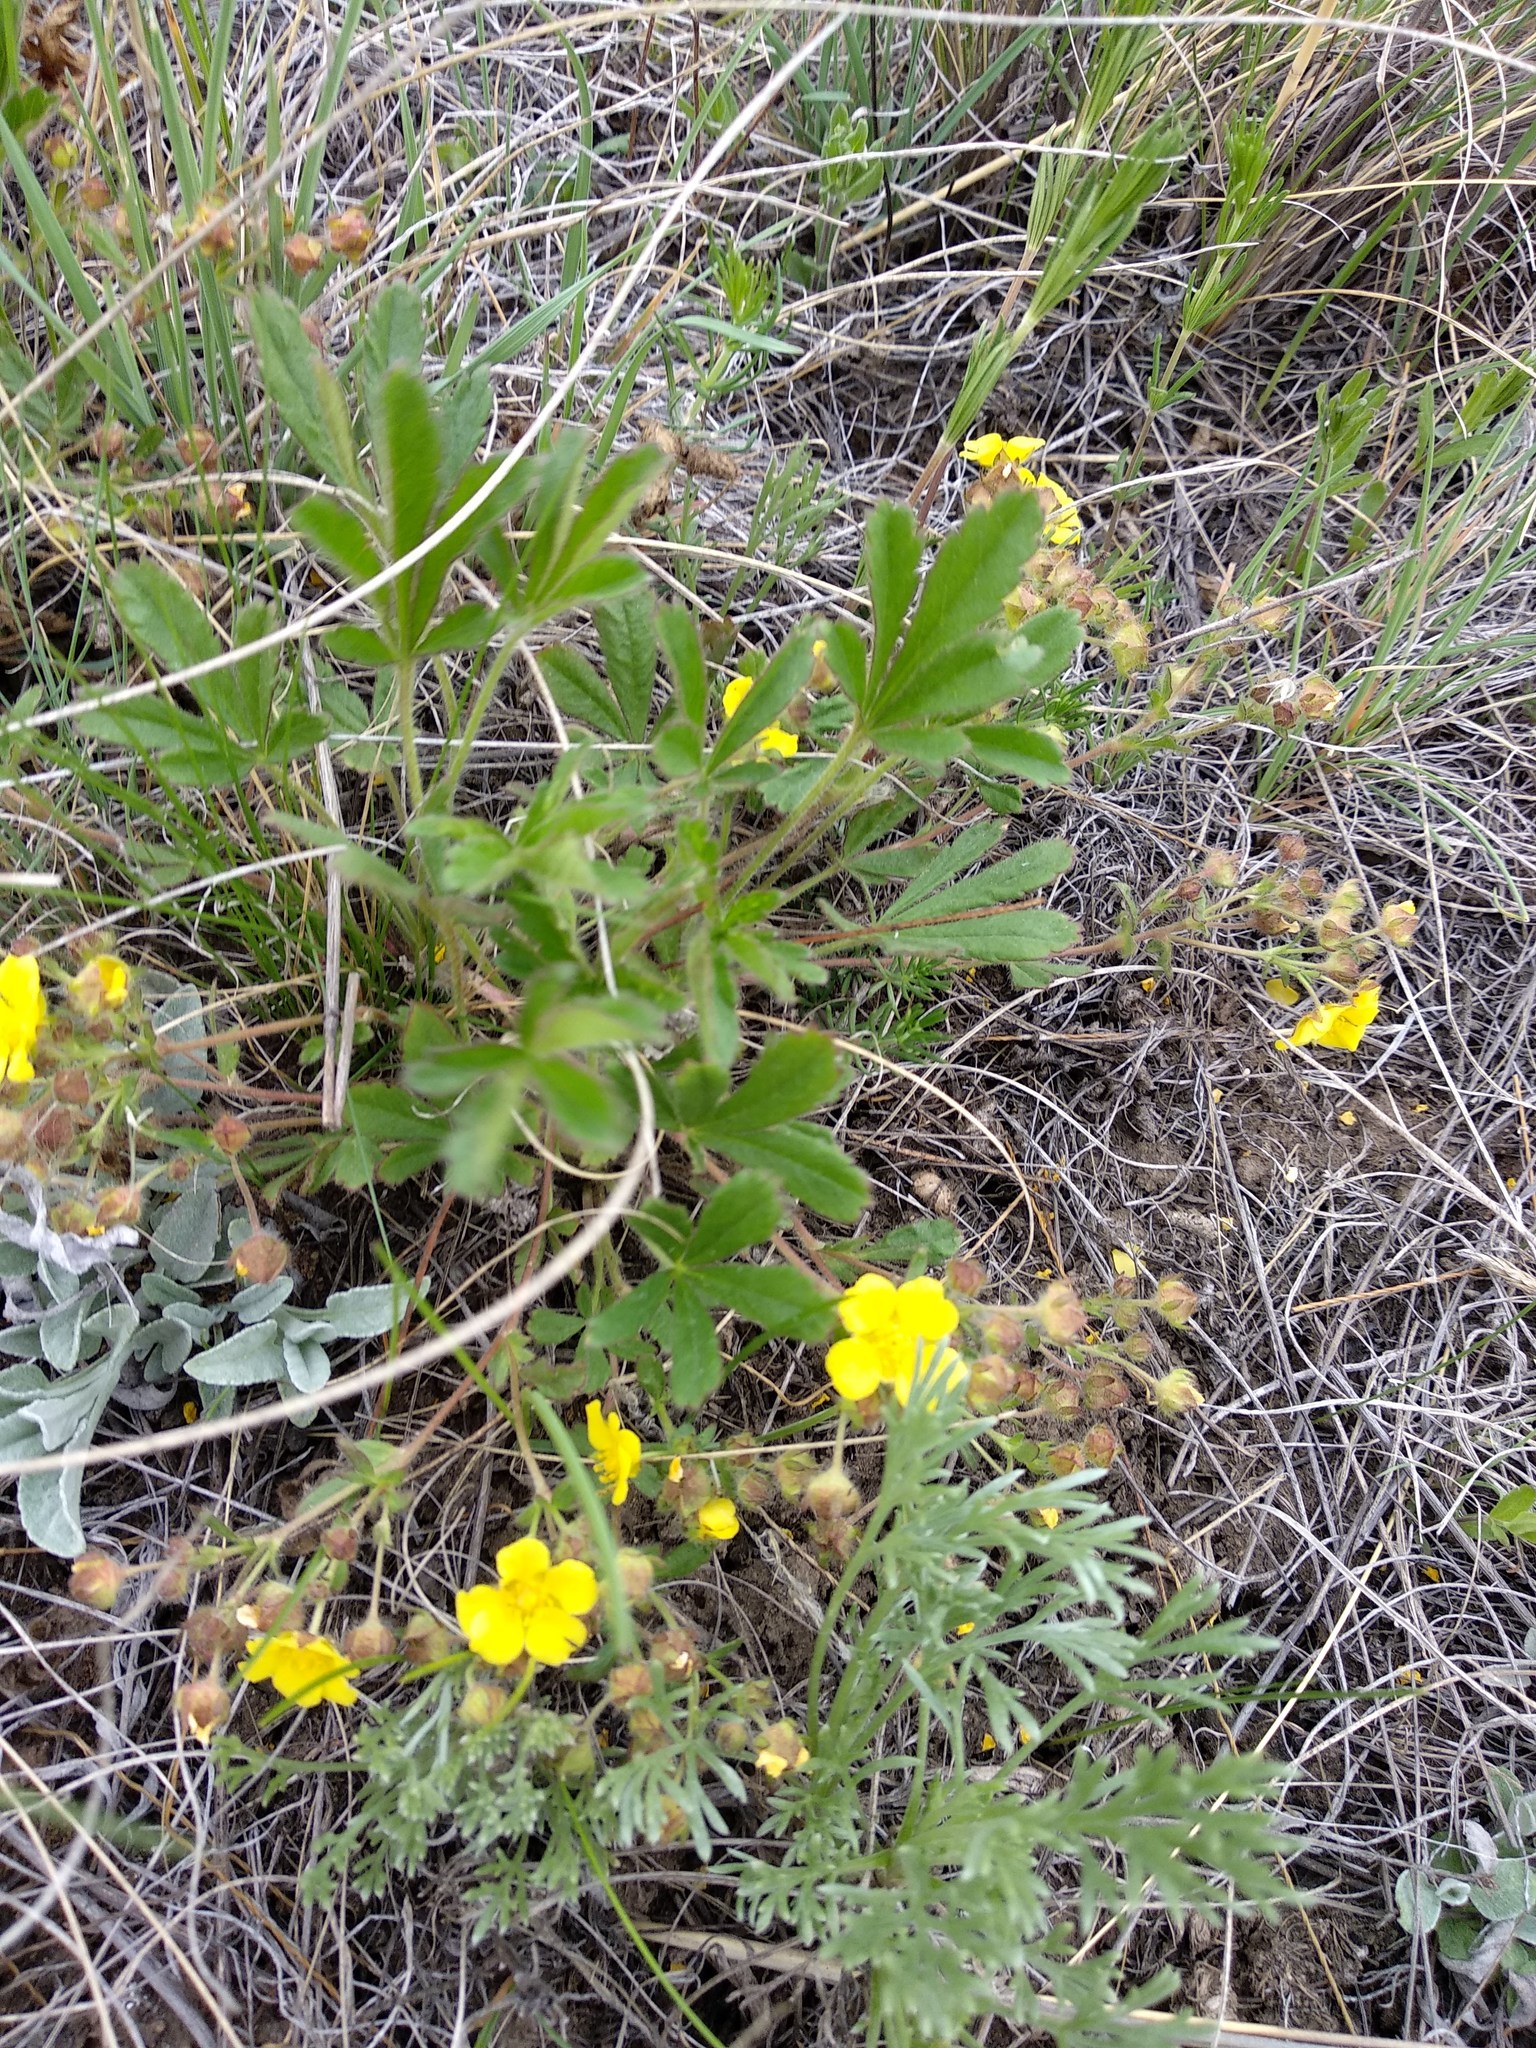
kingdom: Plantae
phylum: Tracheophyta
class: Magnoliopsida
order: Rosales
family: Rosaceae
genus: Potentilla
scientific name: Potentilla humifusa
